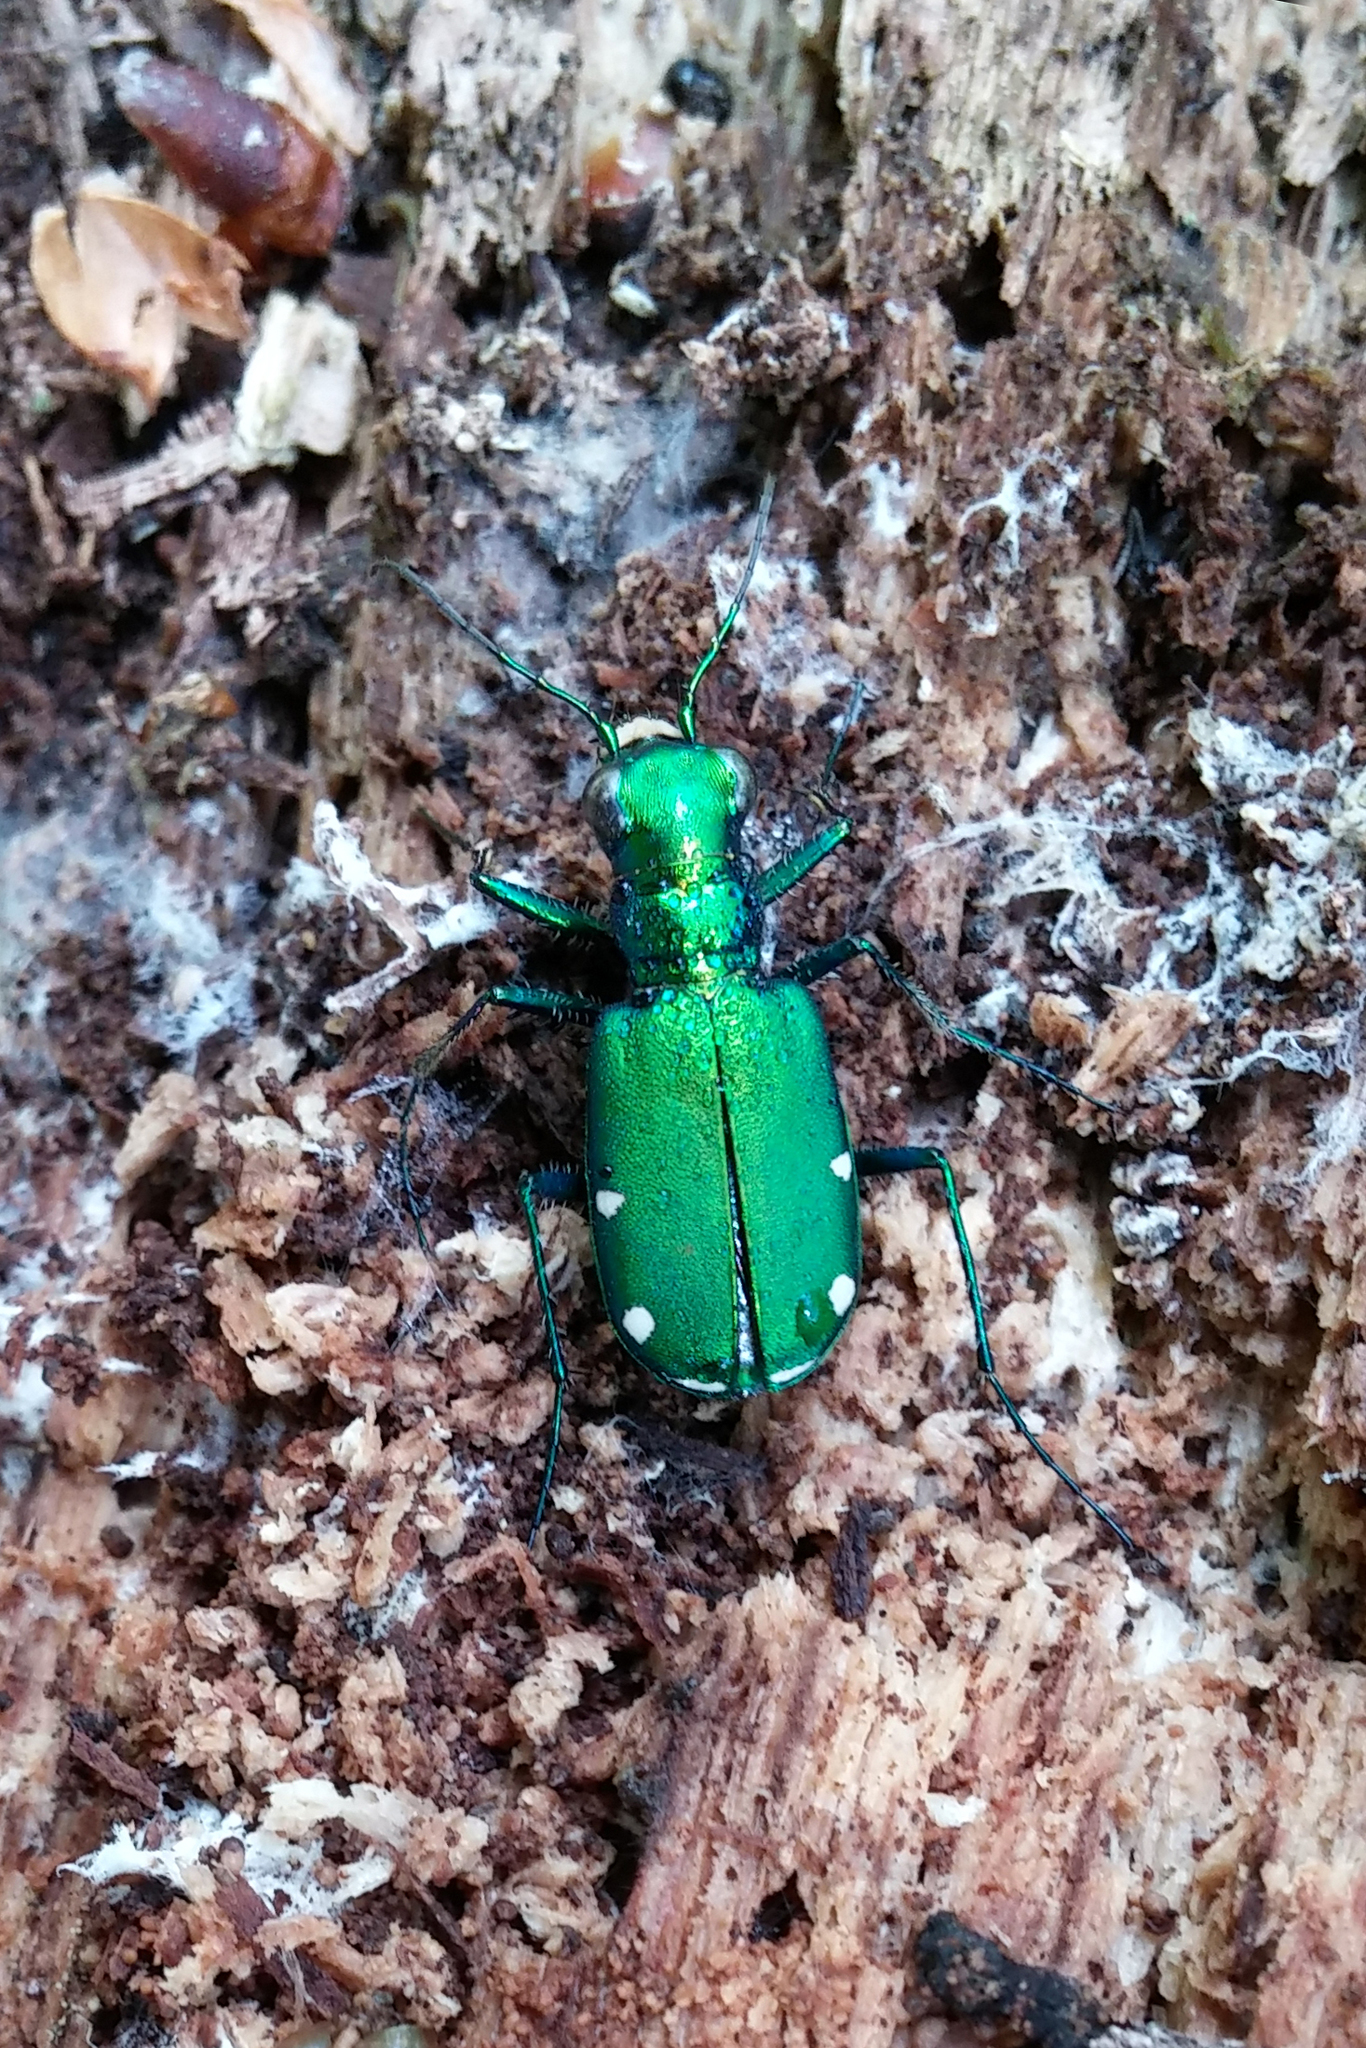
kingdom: Animalia
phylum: Arthropoda
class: Insecta
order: Coleoptera
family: Carabidae
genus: Cicindela
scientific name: Cicindela sexguttata
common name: Six-spotted tiger beetle
